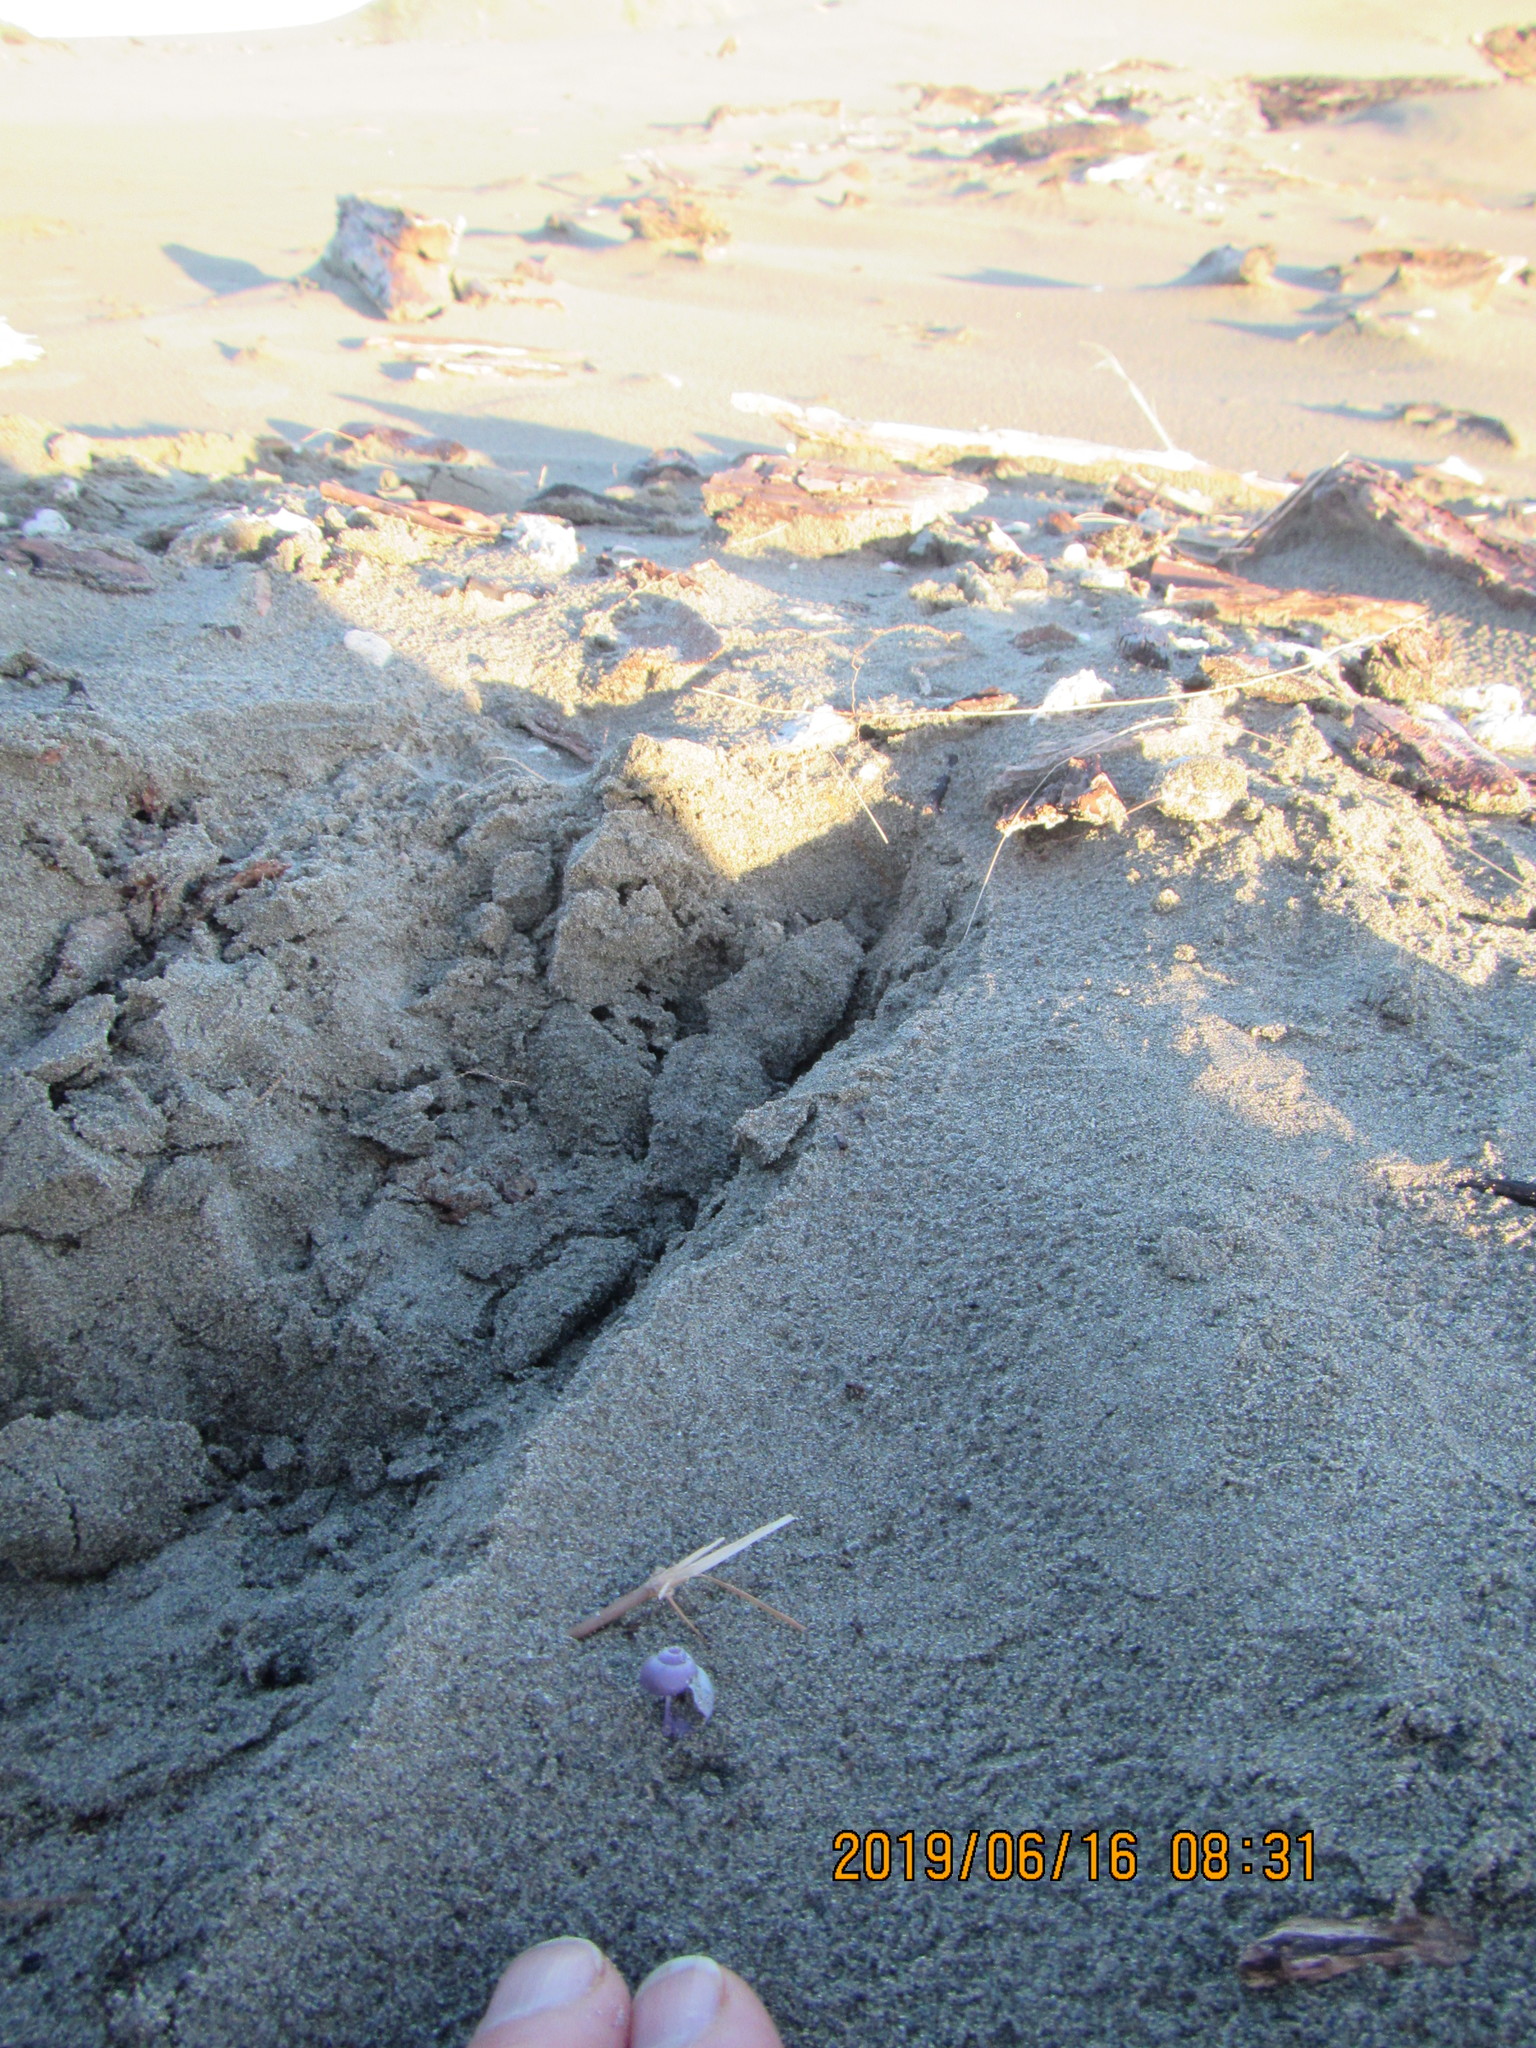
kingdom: Animalia
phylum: Mollusca
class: Gastropoda
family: Epitoniidae
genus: Janthina
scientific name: Janthina exigua
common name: Dwarf janthina
